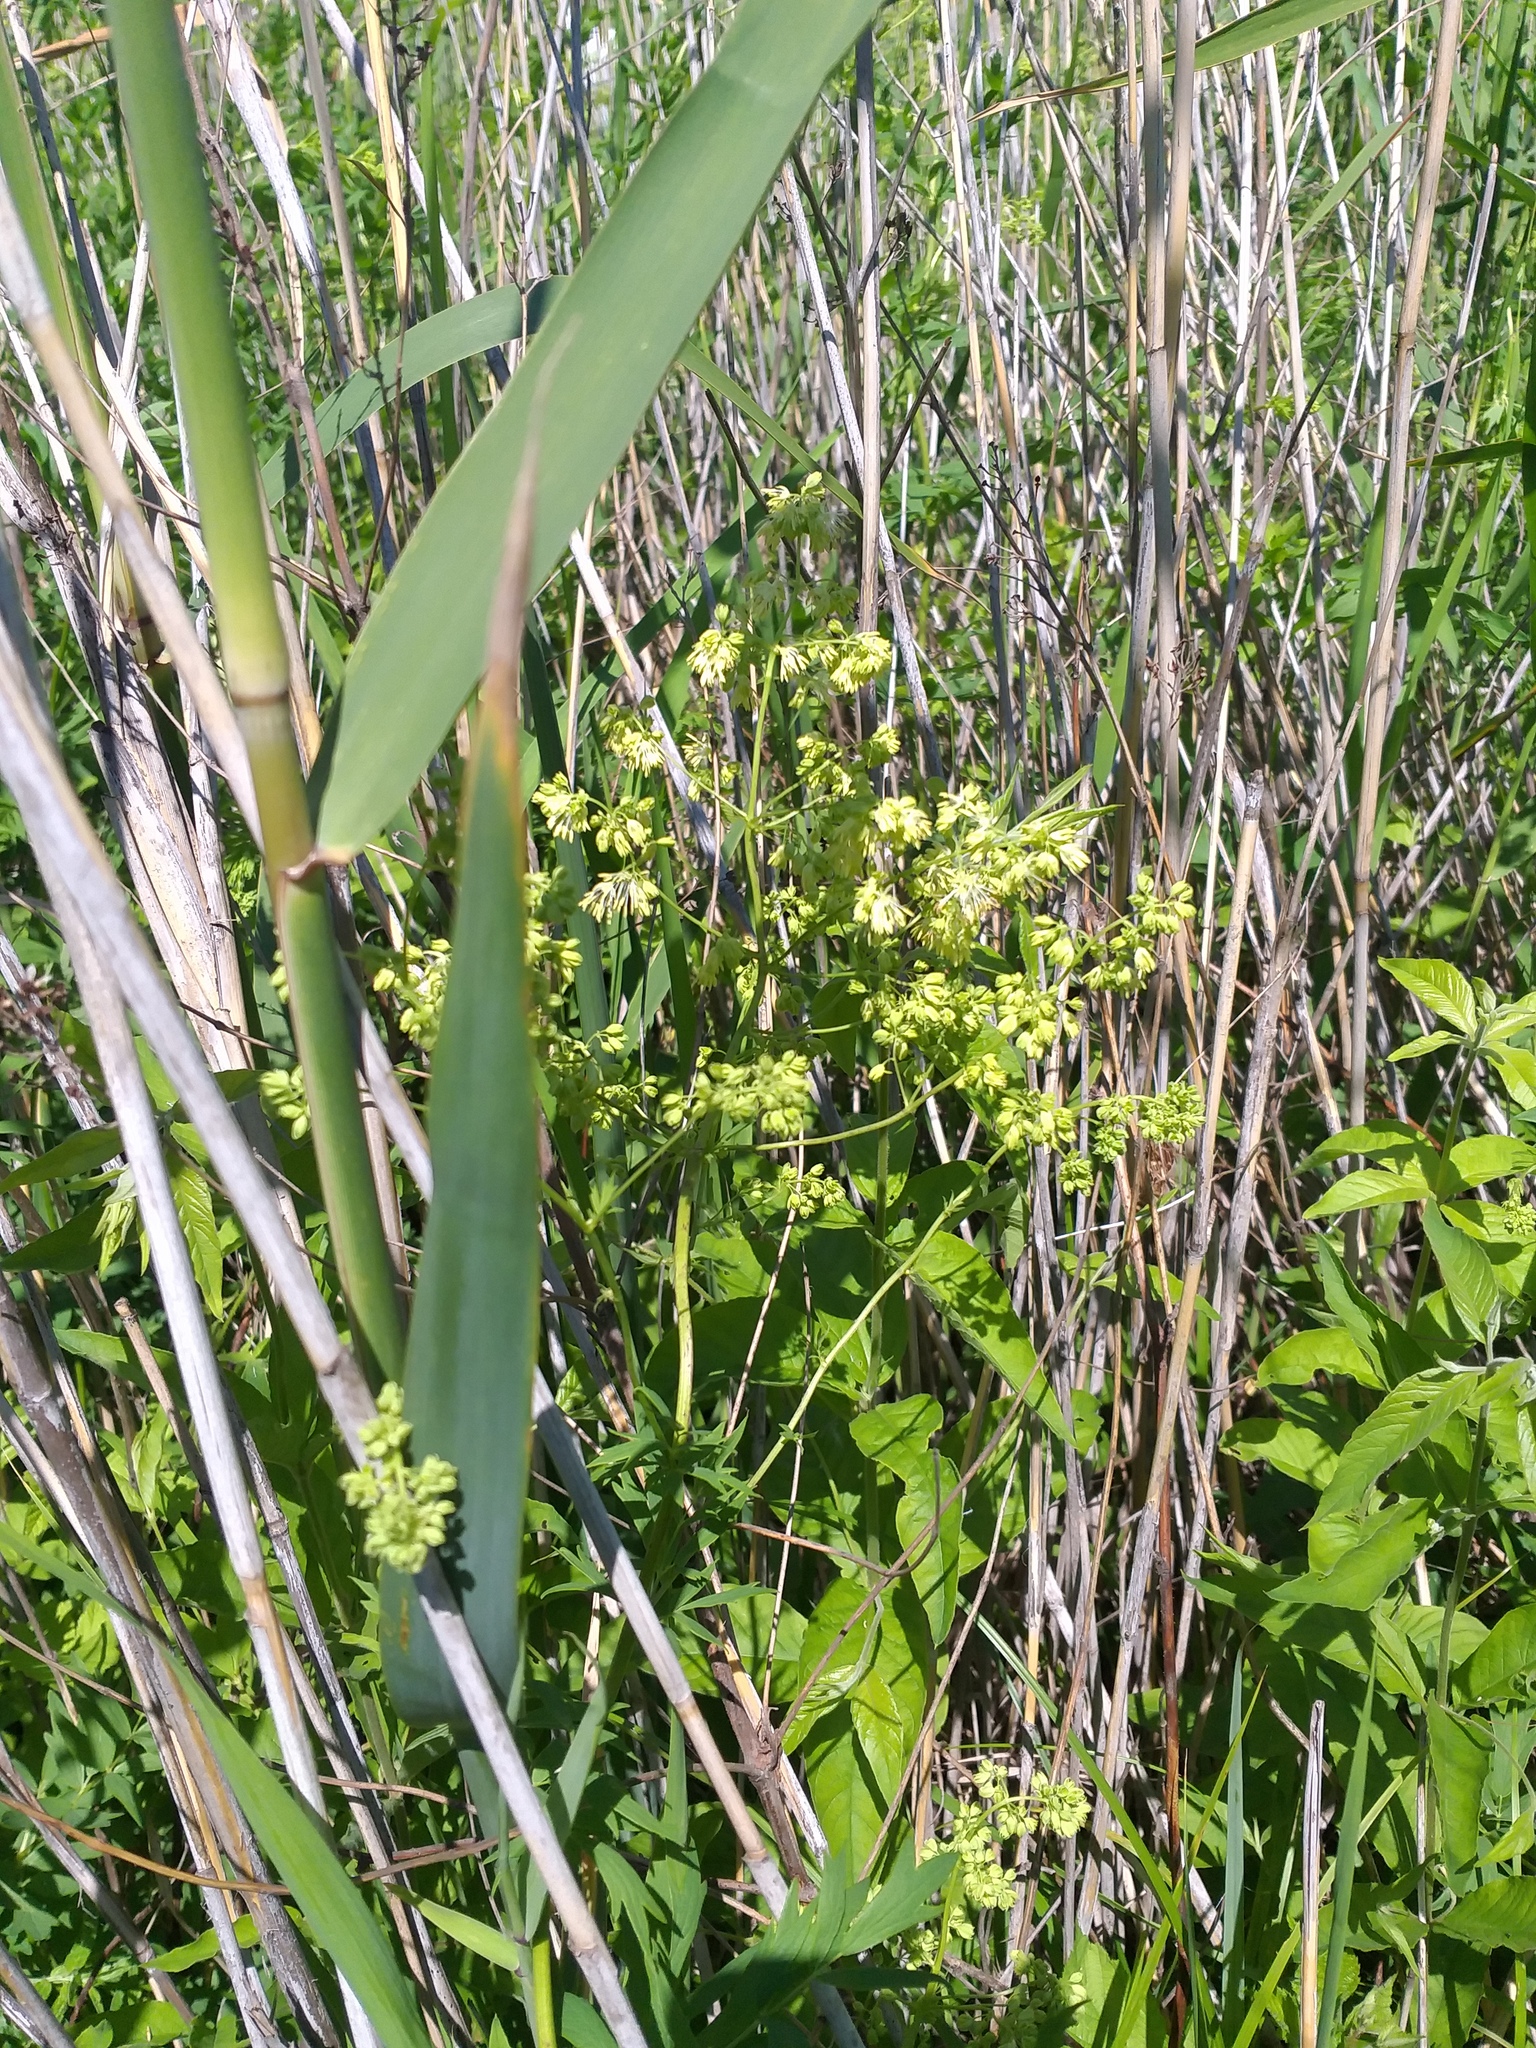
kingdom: Plantae
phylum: Tracheophyta
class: Magnoliopsida
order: Ranunculales
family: Ranunculaceae
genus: Thalictrum
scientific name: Thalictrum flavum
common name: Common meadow-rue
